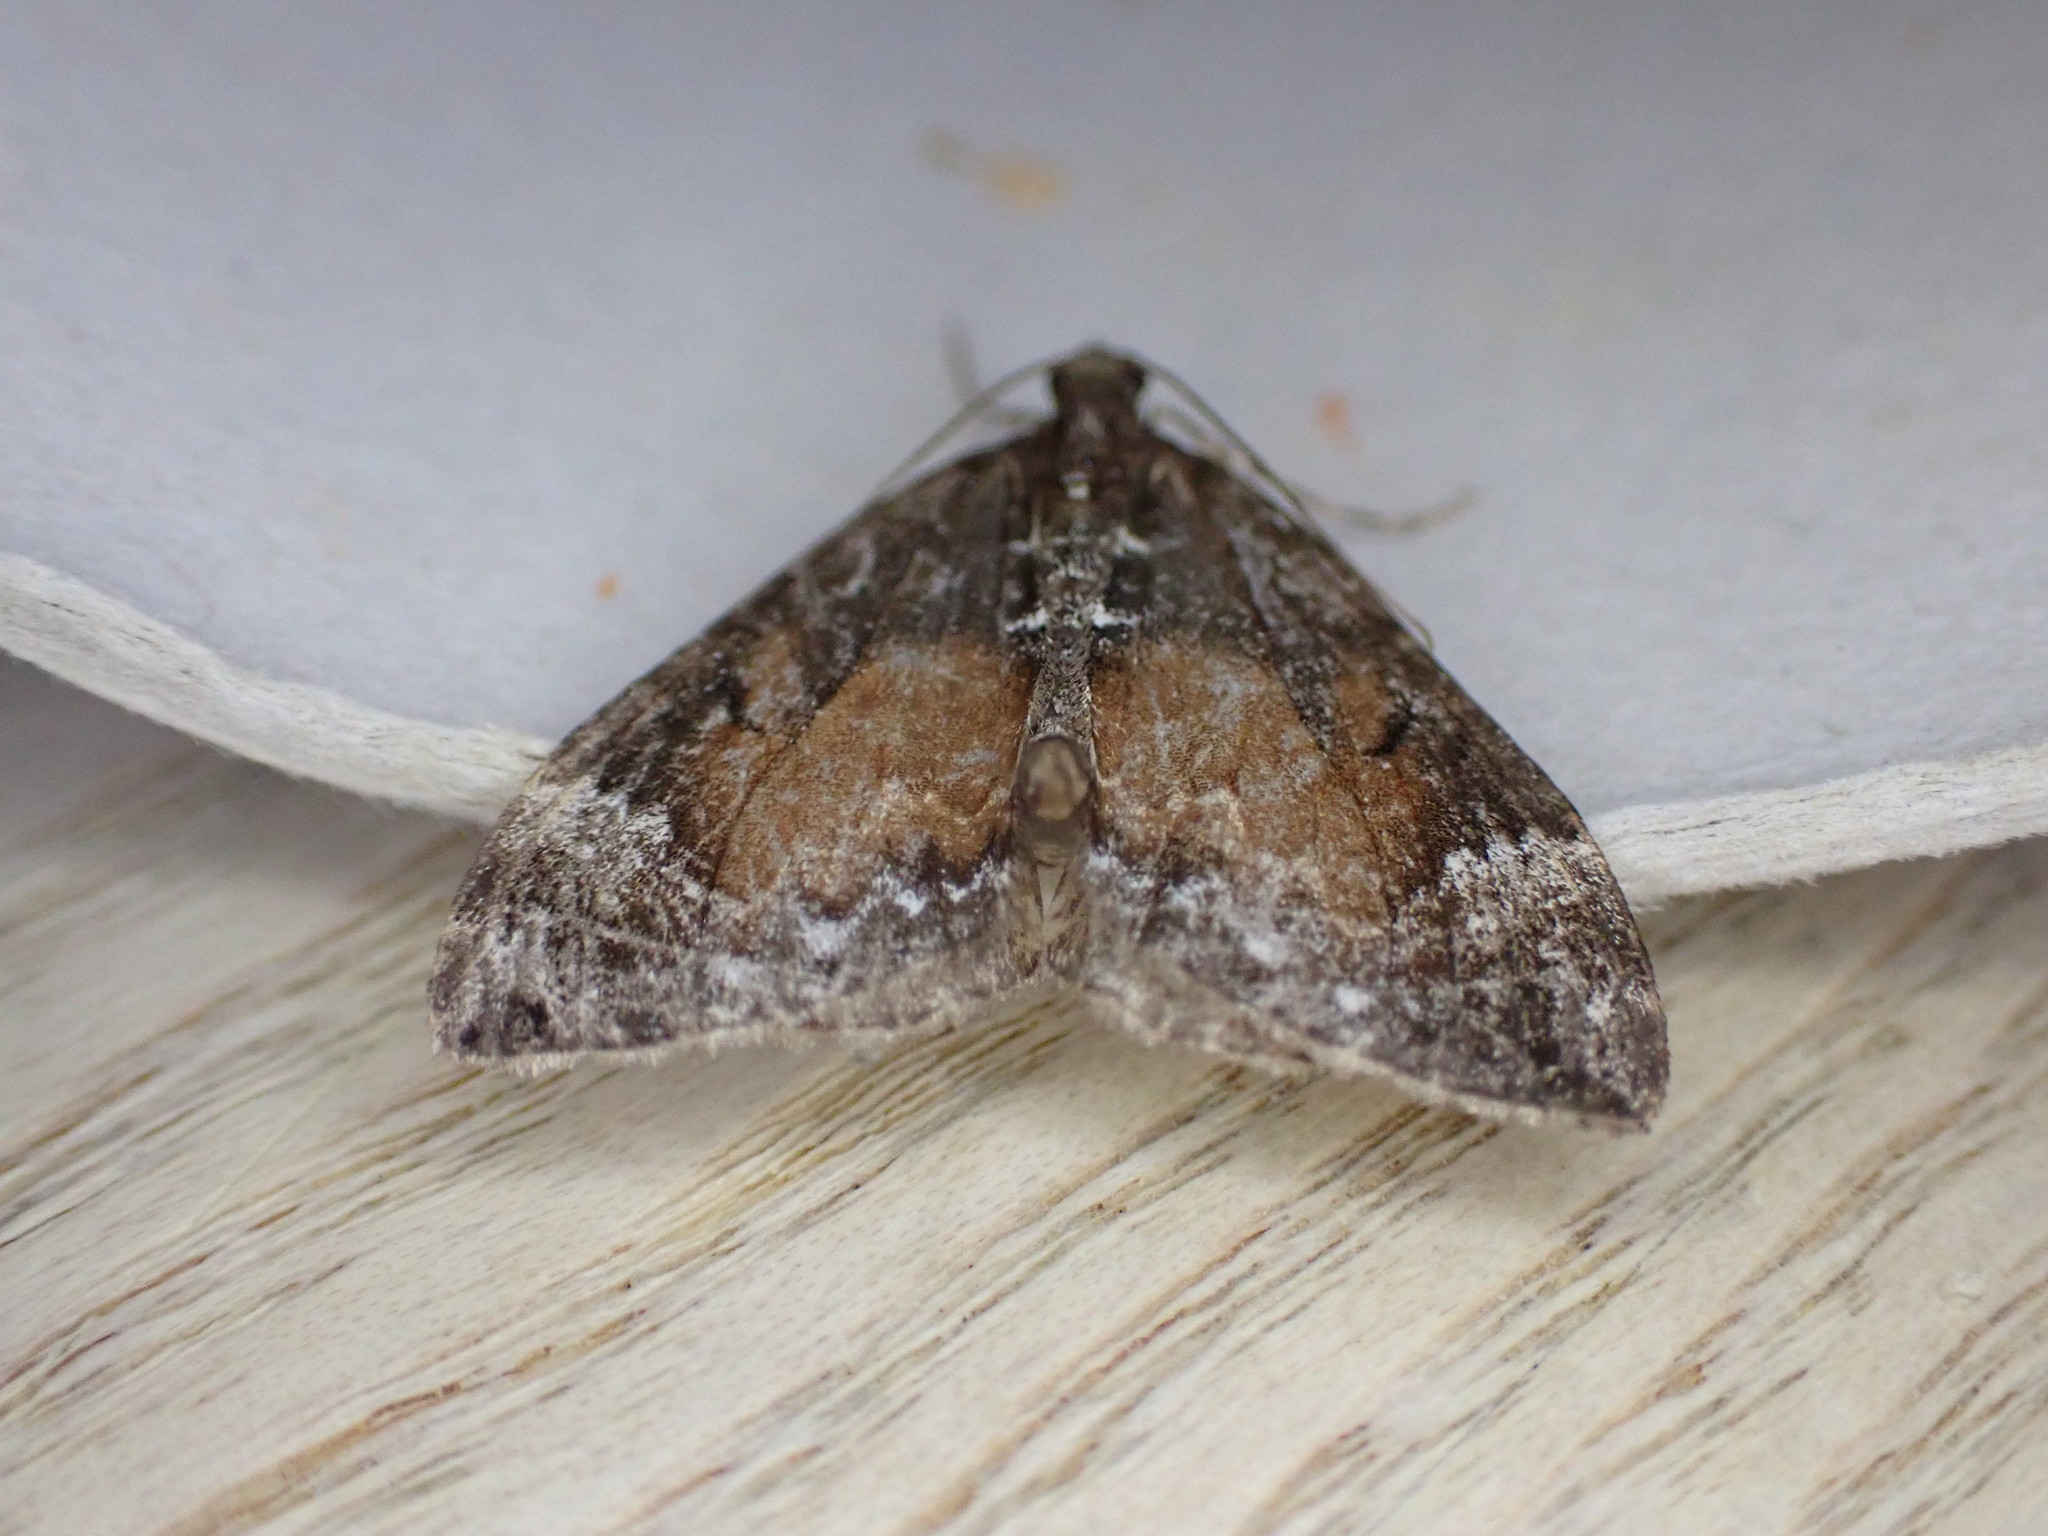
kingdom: Animalia
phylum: Arthropoda
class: Insecta
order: Lepidoptera
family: Geometridae
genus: Dysstroma
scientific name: Dysstroma truncata
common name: Common marbled carpet
